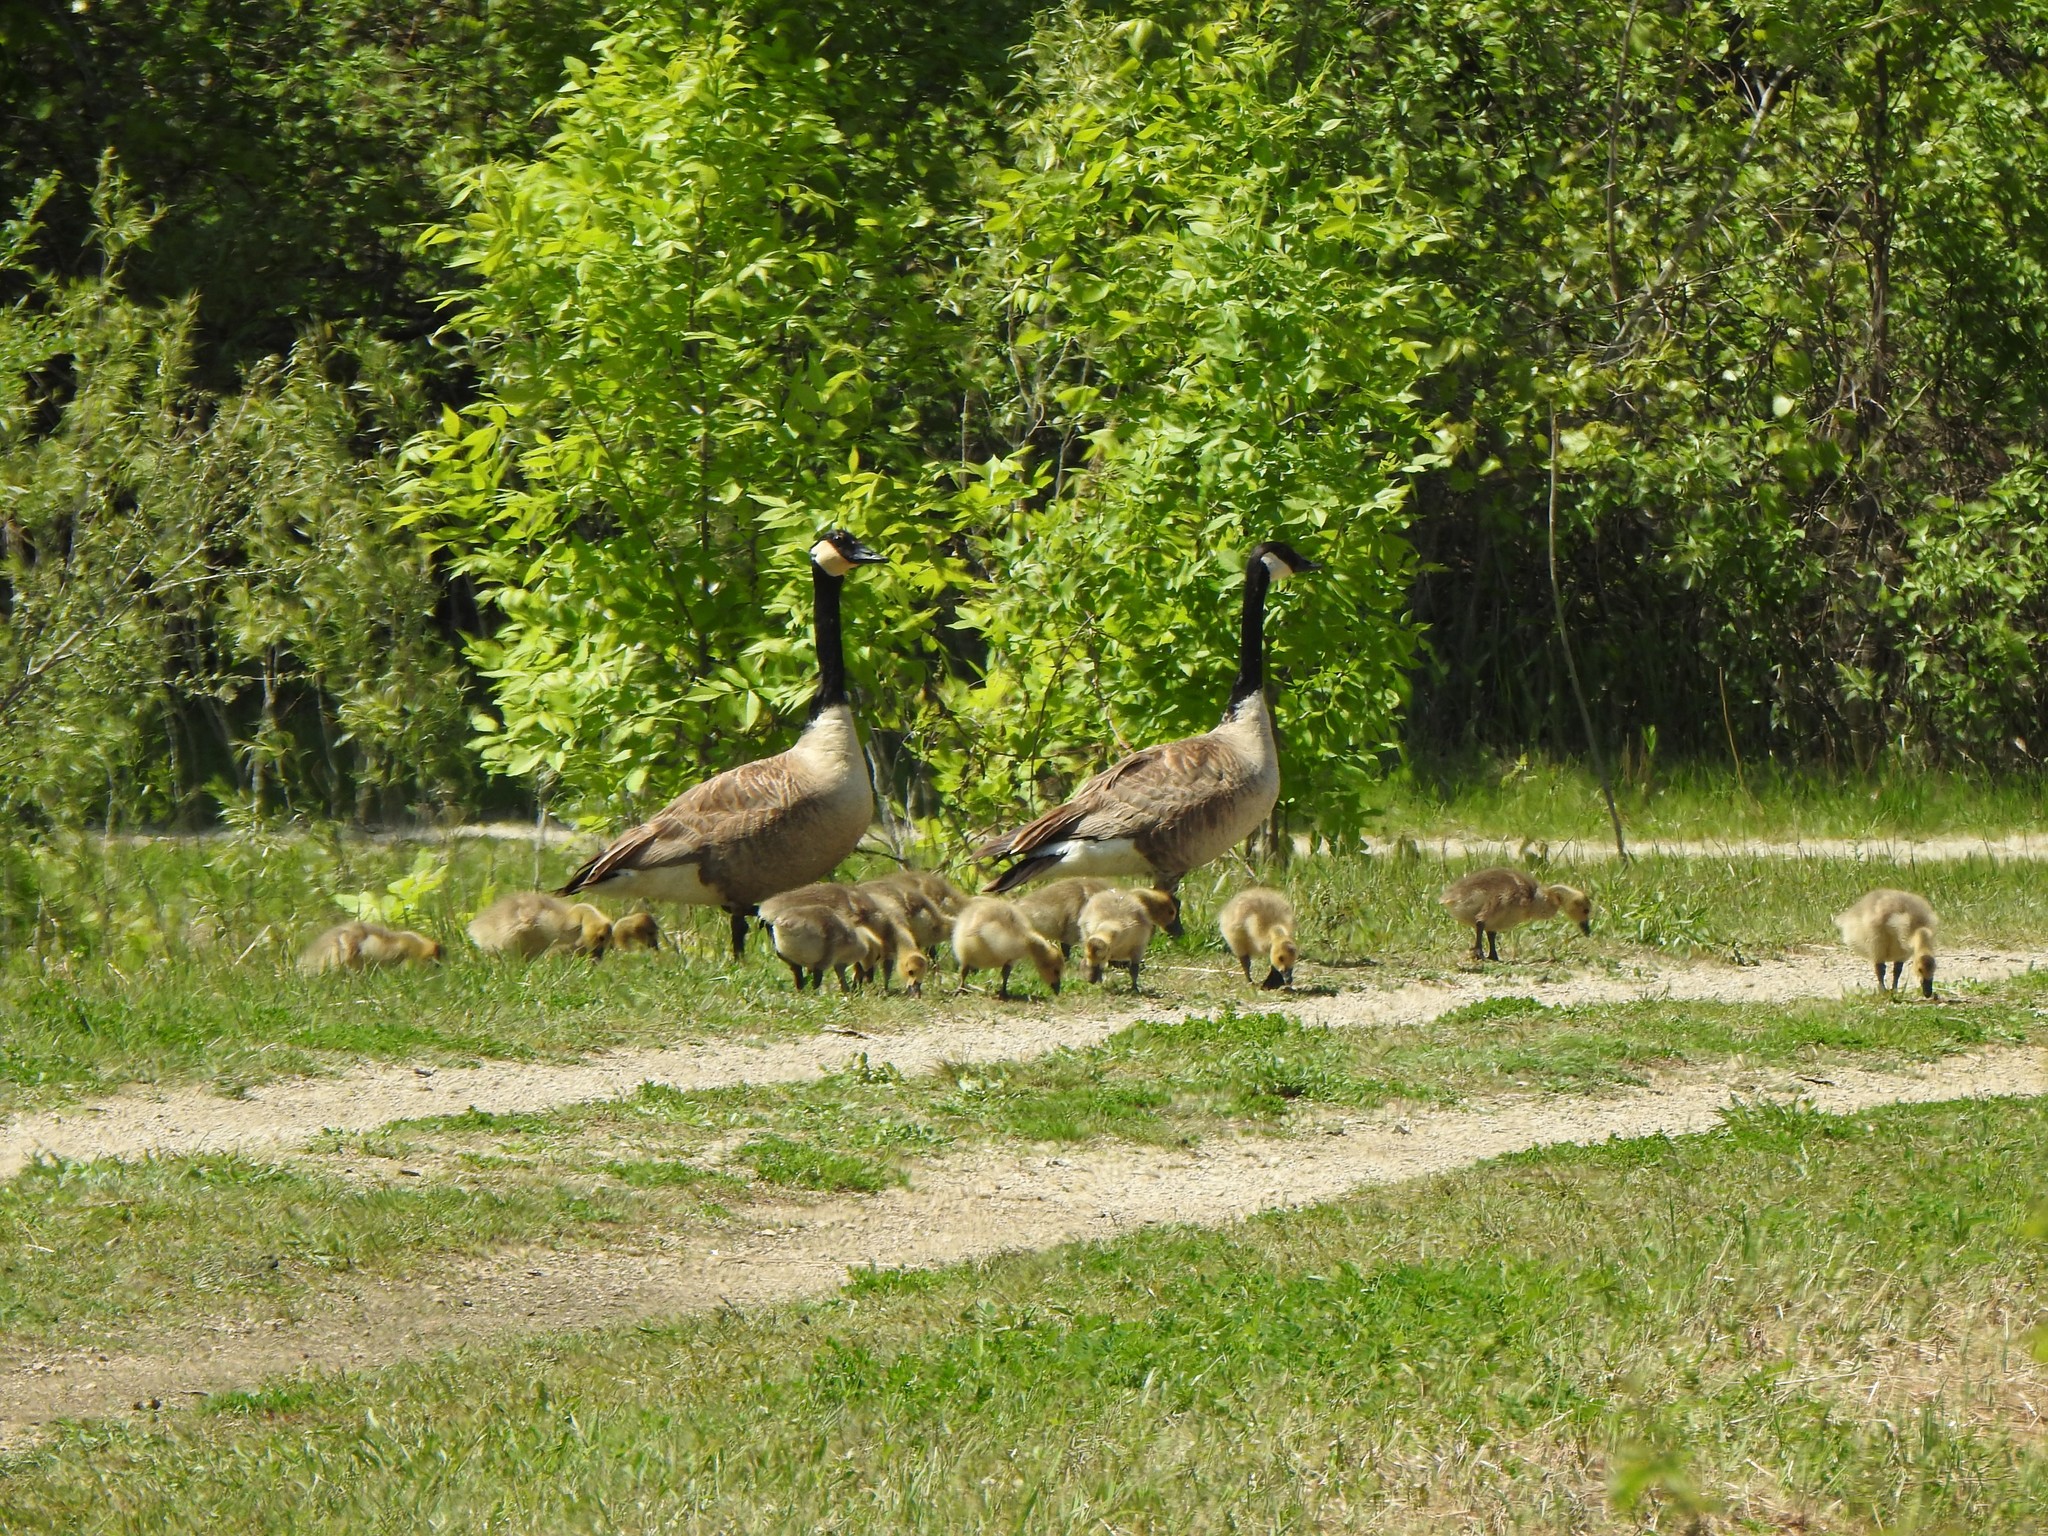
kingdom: Animalia
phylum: Chordata
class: Aves
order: Anseriformes
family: Anatidae
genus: Branta
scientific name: Branta canadensis
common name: Canada goose
